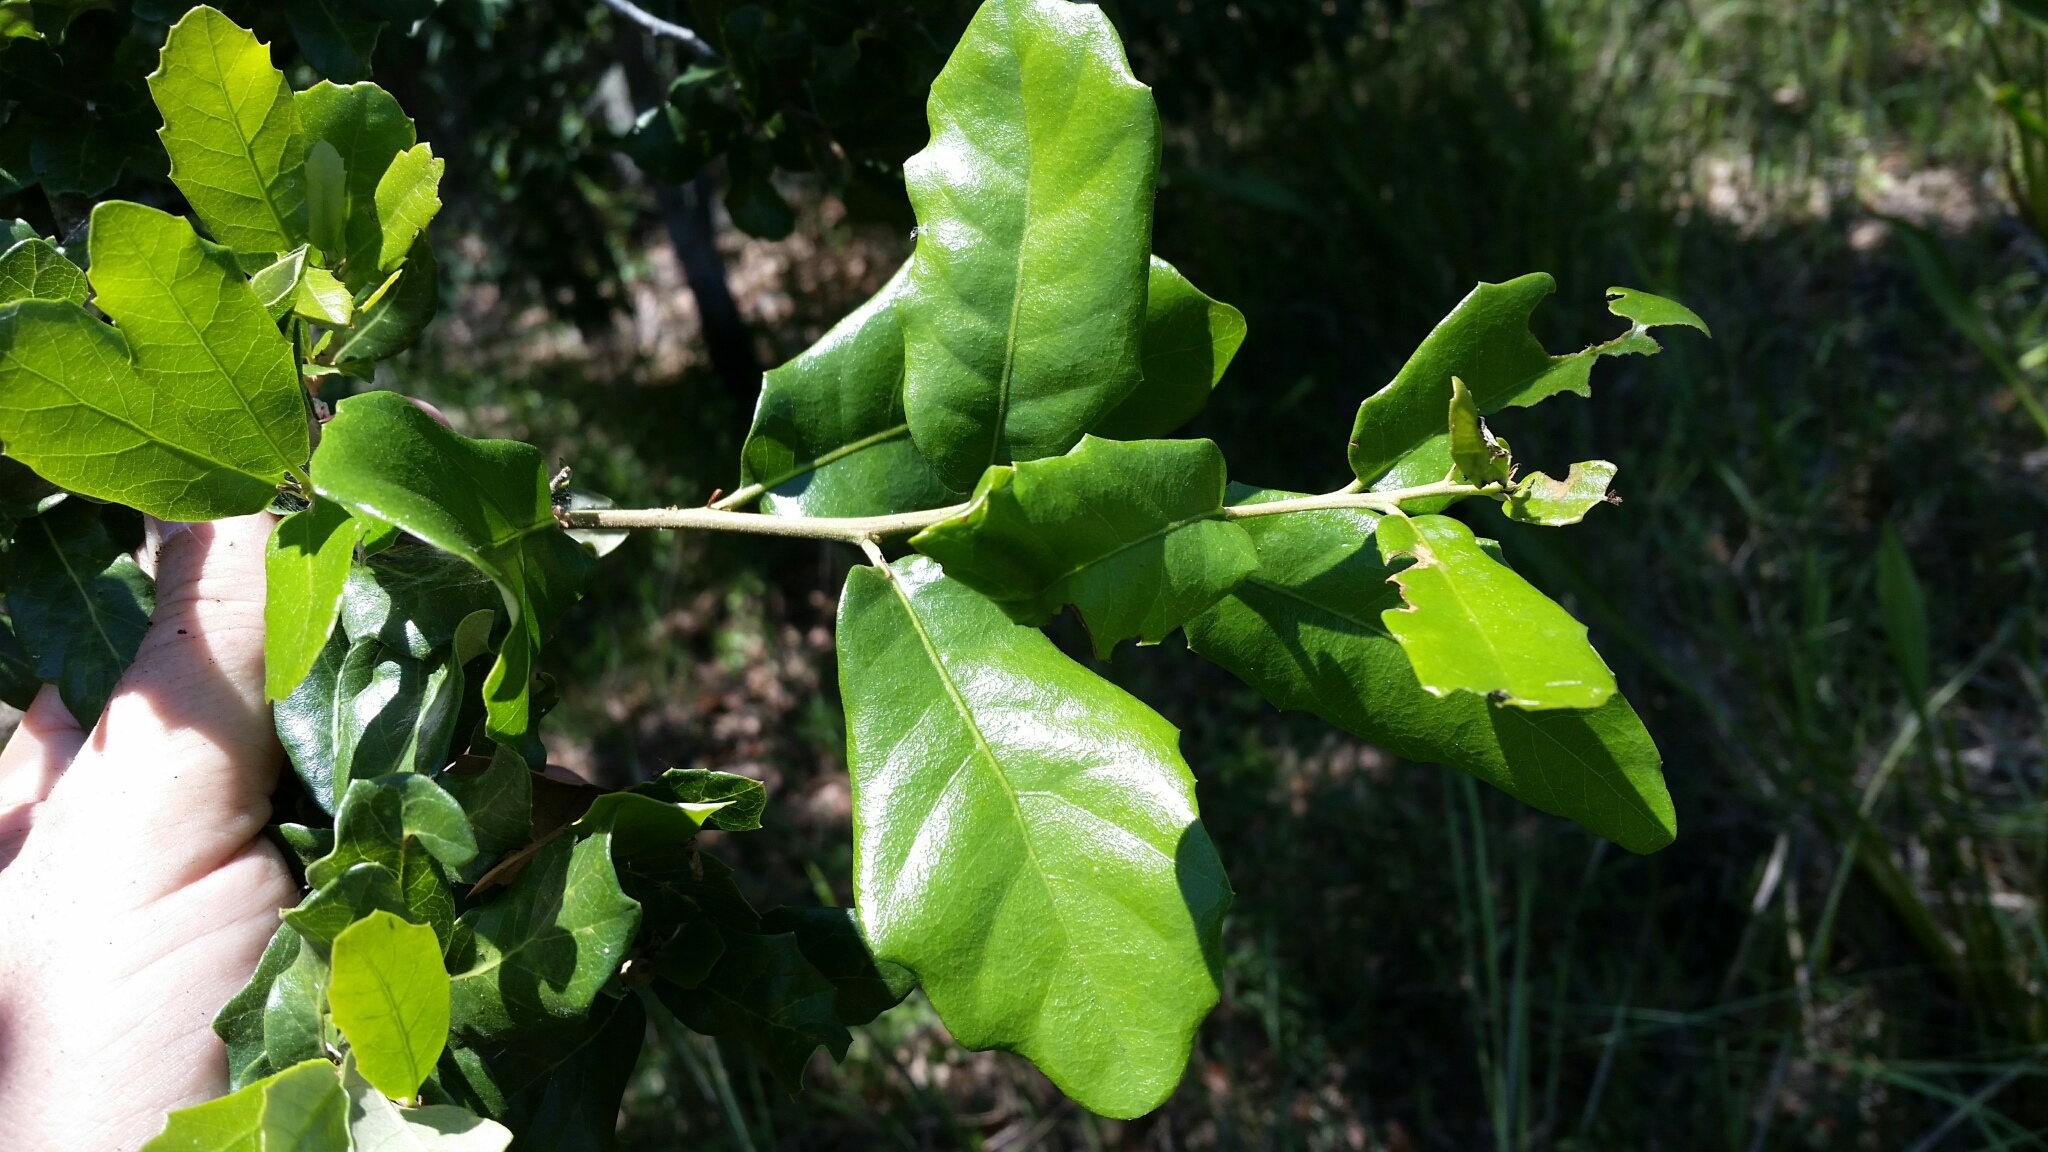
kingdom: Plantae
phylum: Tracheophyta
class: Magnoliopsida
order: Fagales
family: Fagaceae
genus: Quercus
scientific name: Quercus virginiana
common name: Southern live oak
